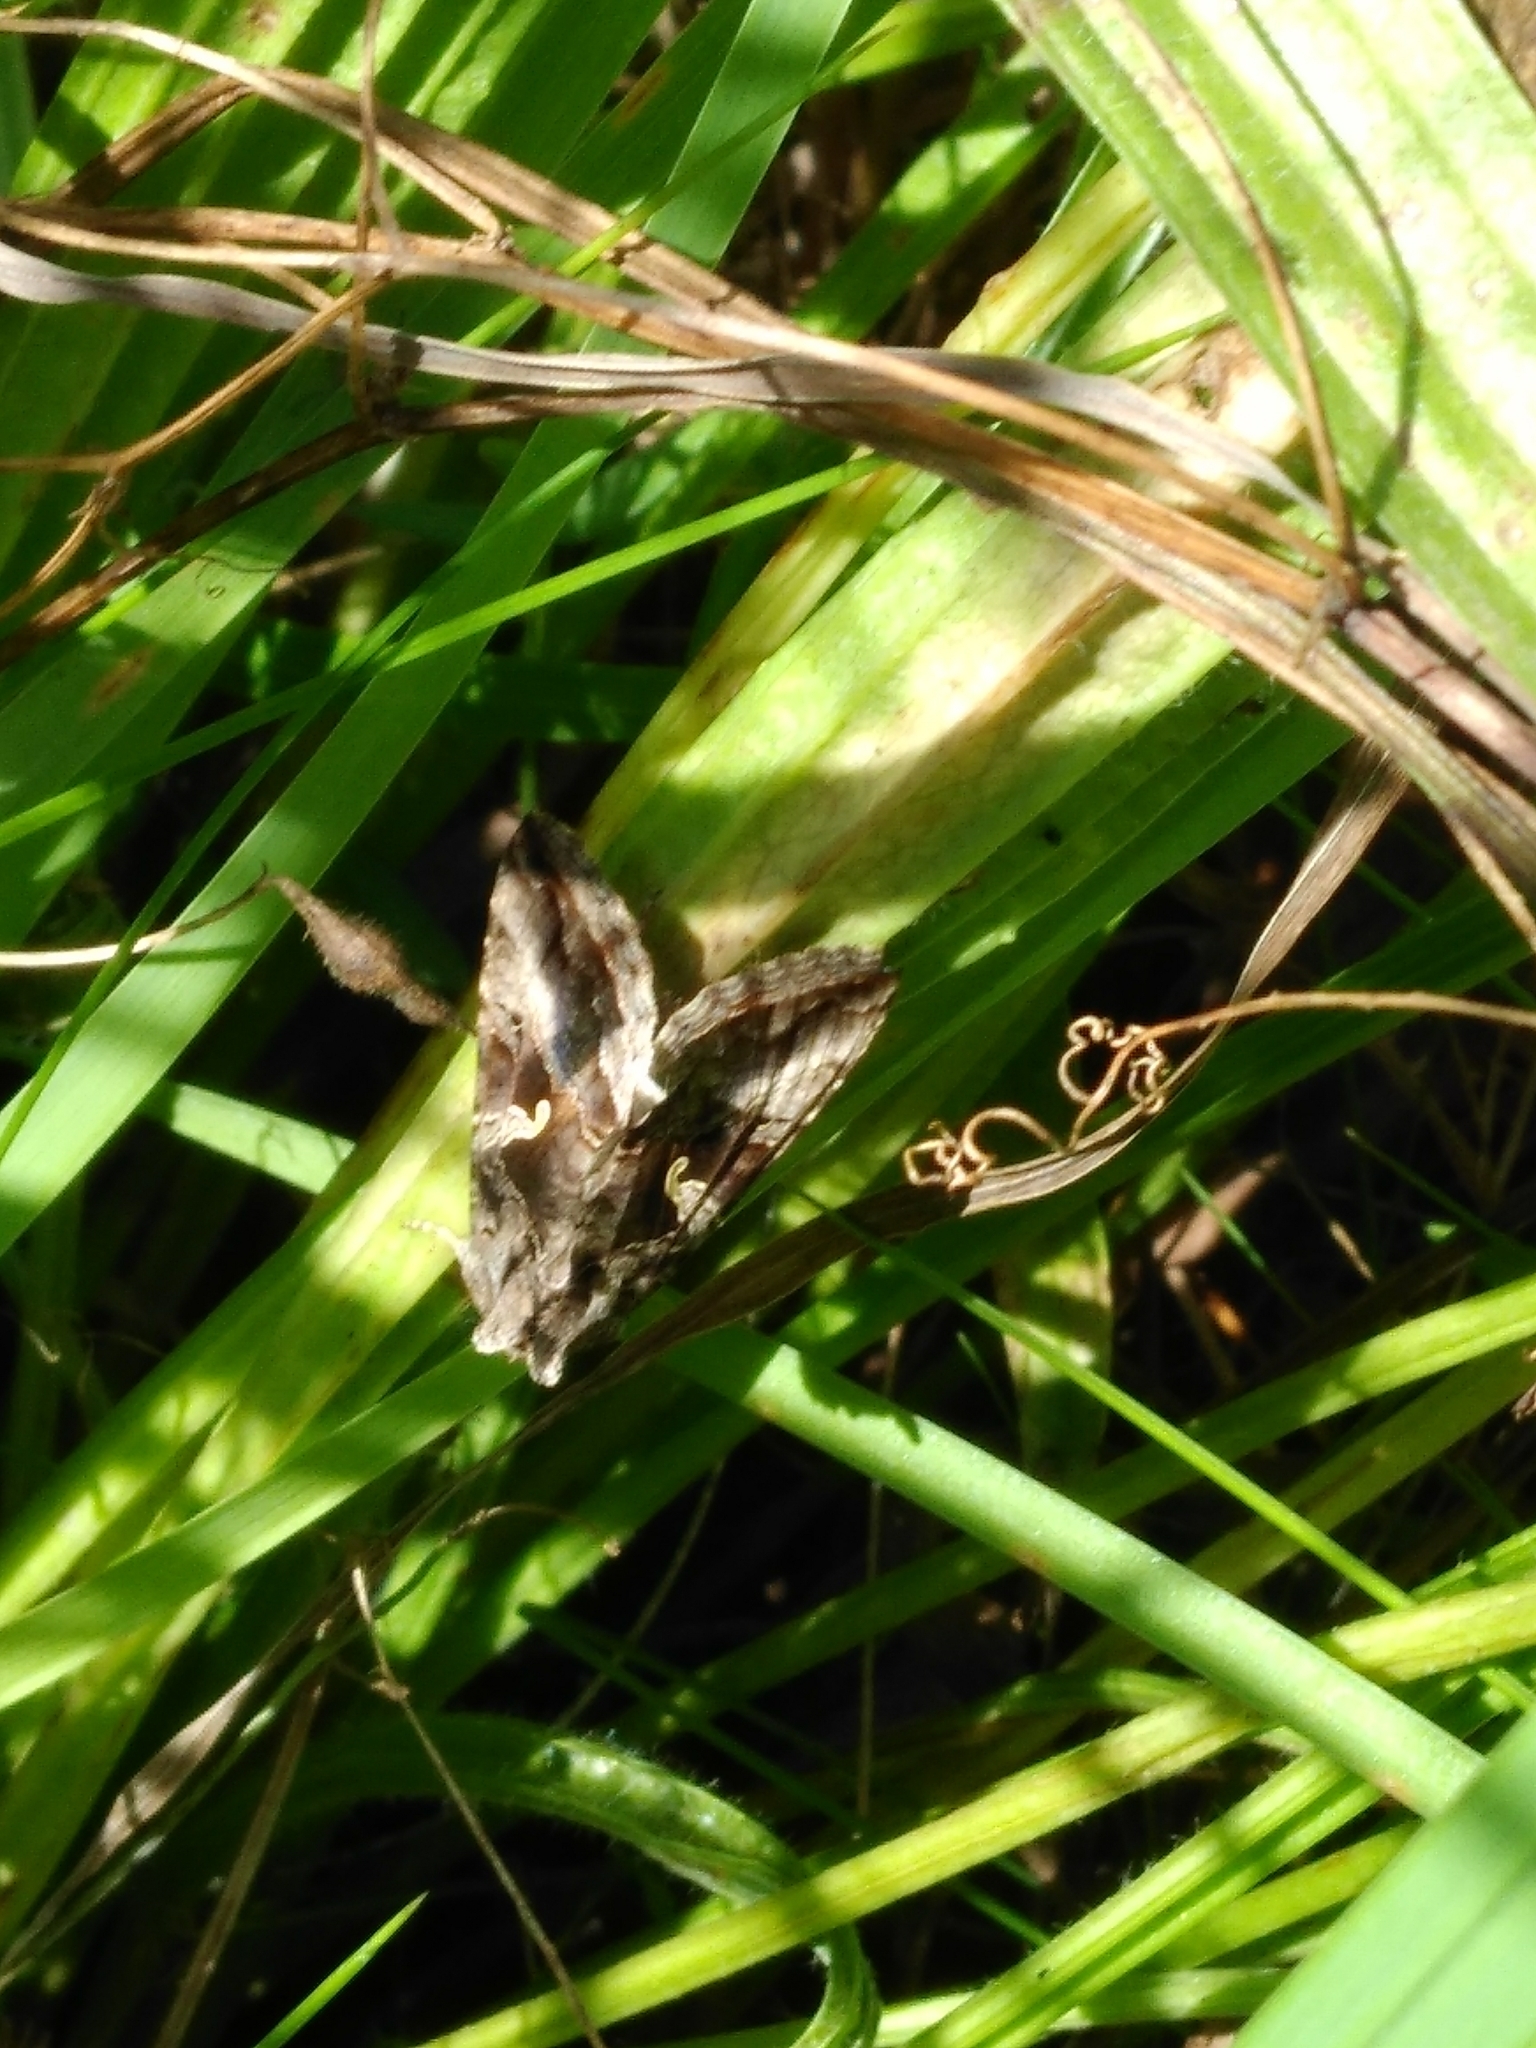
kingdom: Animalia
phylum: Arthropoda
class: Insecta
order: Lepidoptera
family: Noctuidae
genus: Autographa
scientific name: Autographa gamma
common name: Silver y
